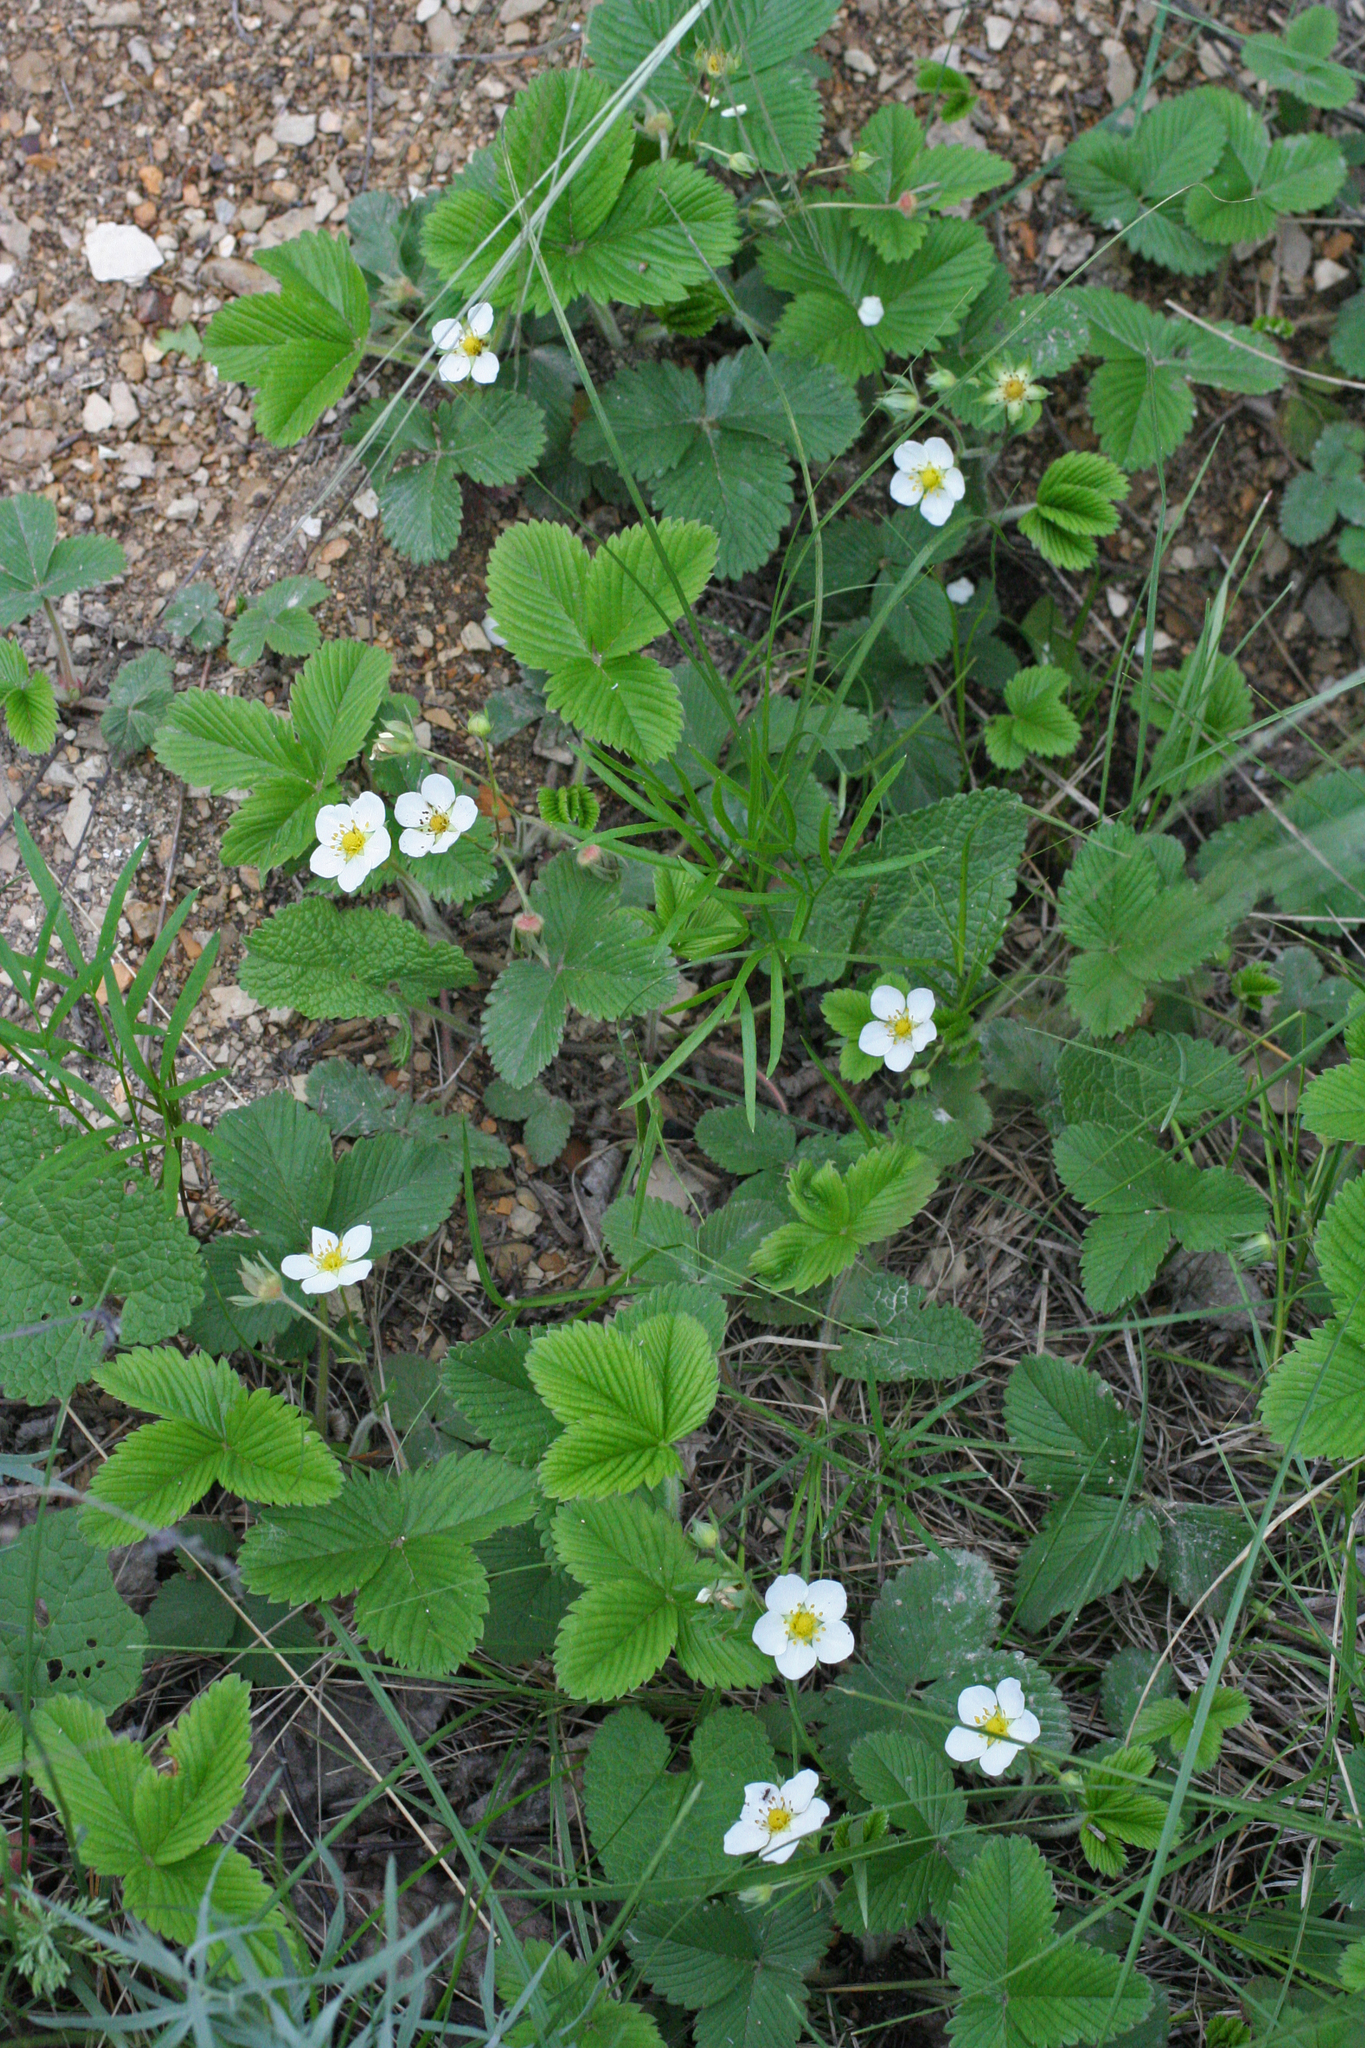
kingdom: Plantae
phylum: Tracheophyta
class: Magnoliopsida
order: Rosales
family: Rosaceae
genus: Fragaria
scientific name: Fragaria viridis
